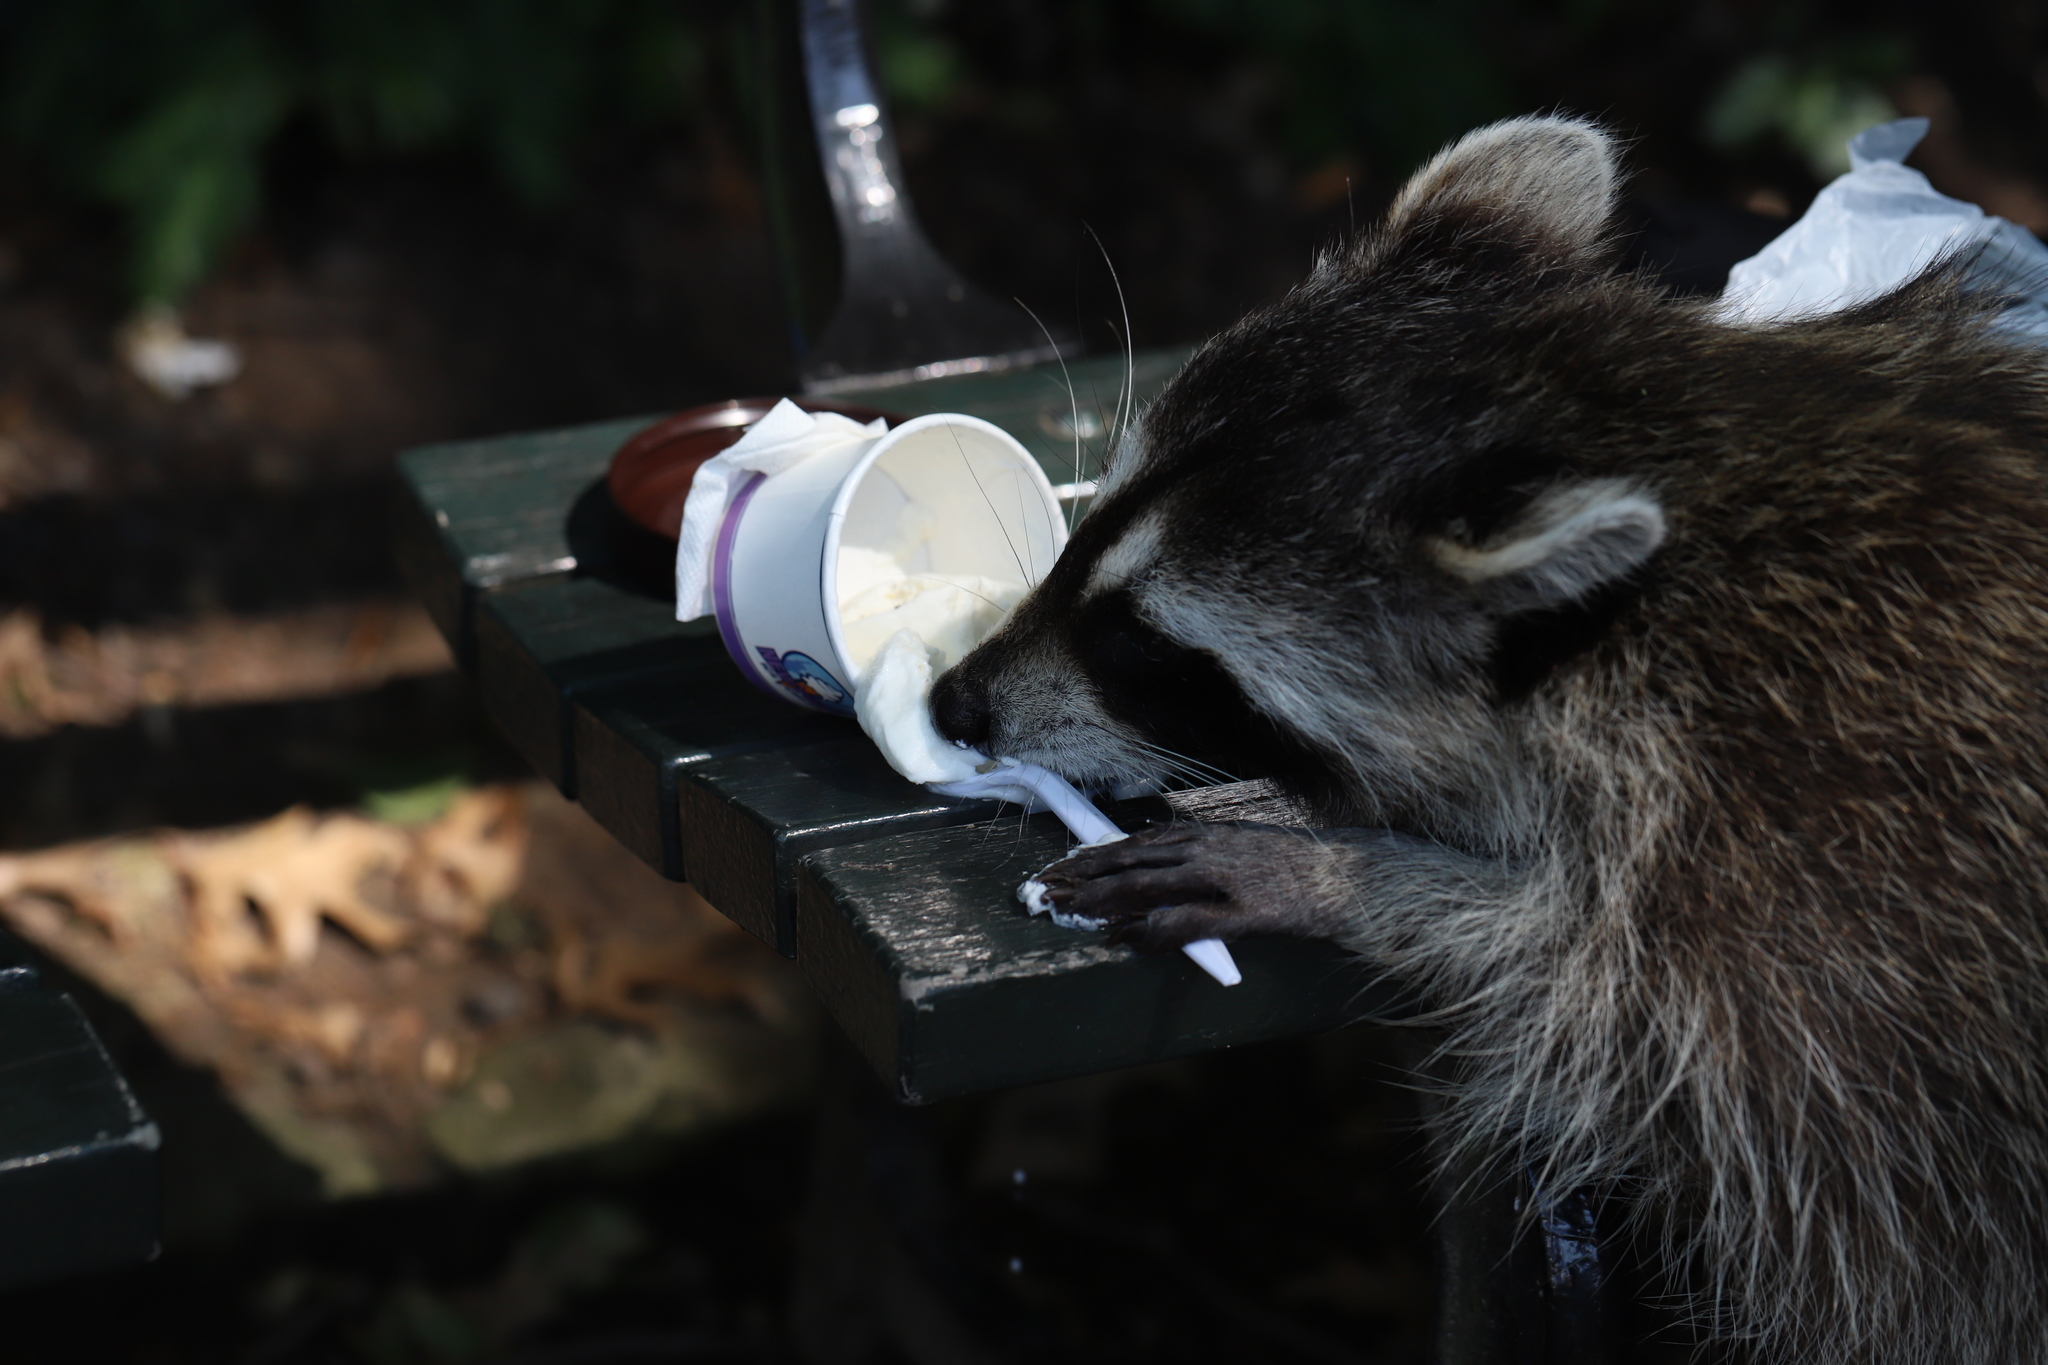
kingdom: Animalia
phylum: Chordata
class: Mammalia
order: Carnivora
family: Procyonidae
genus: Procyon
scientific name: Procyon lotor
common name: Raccoon
